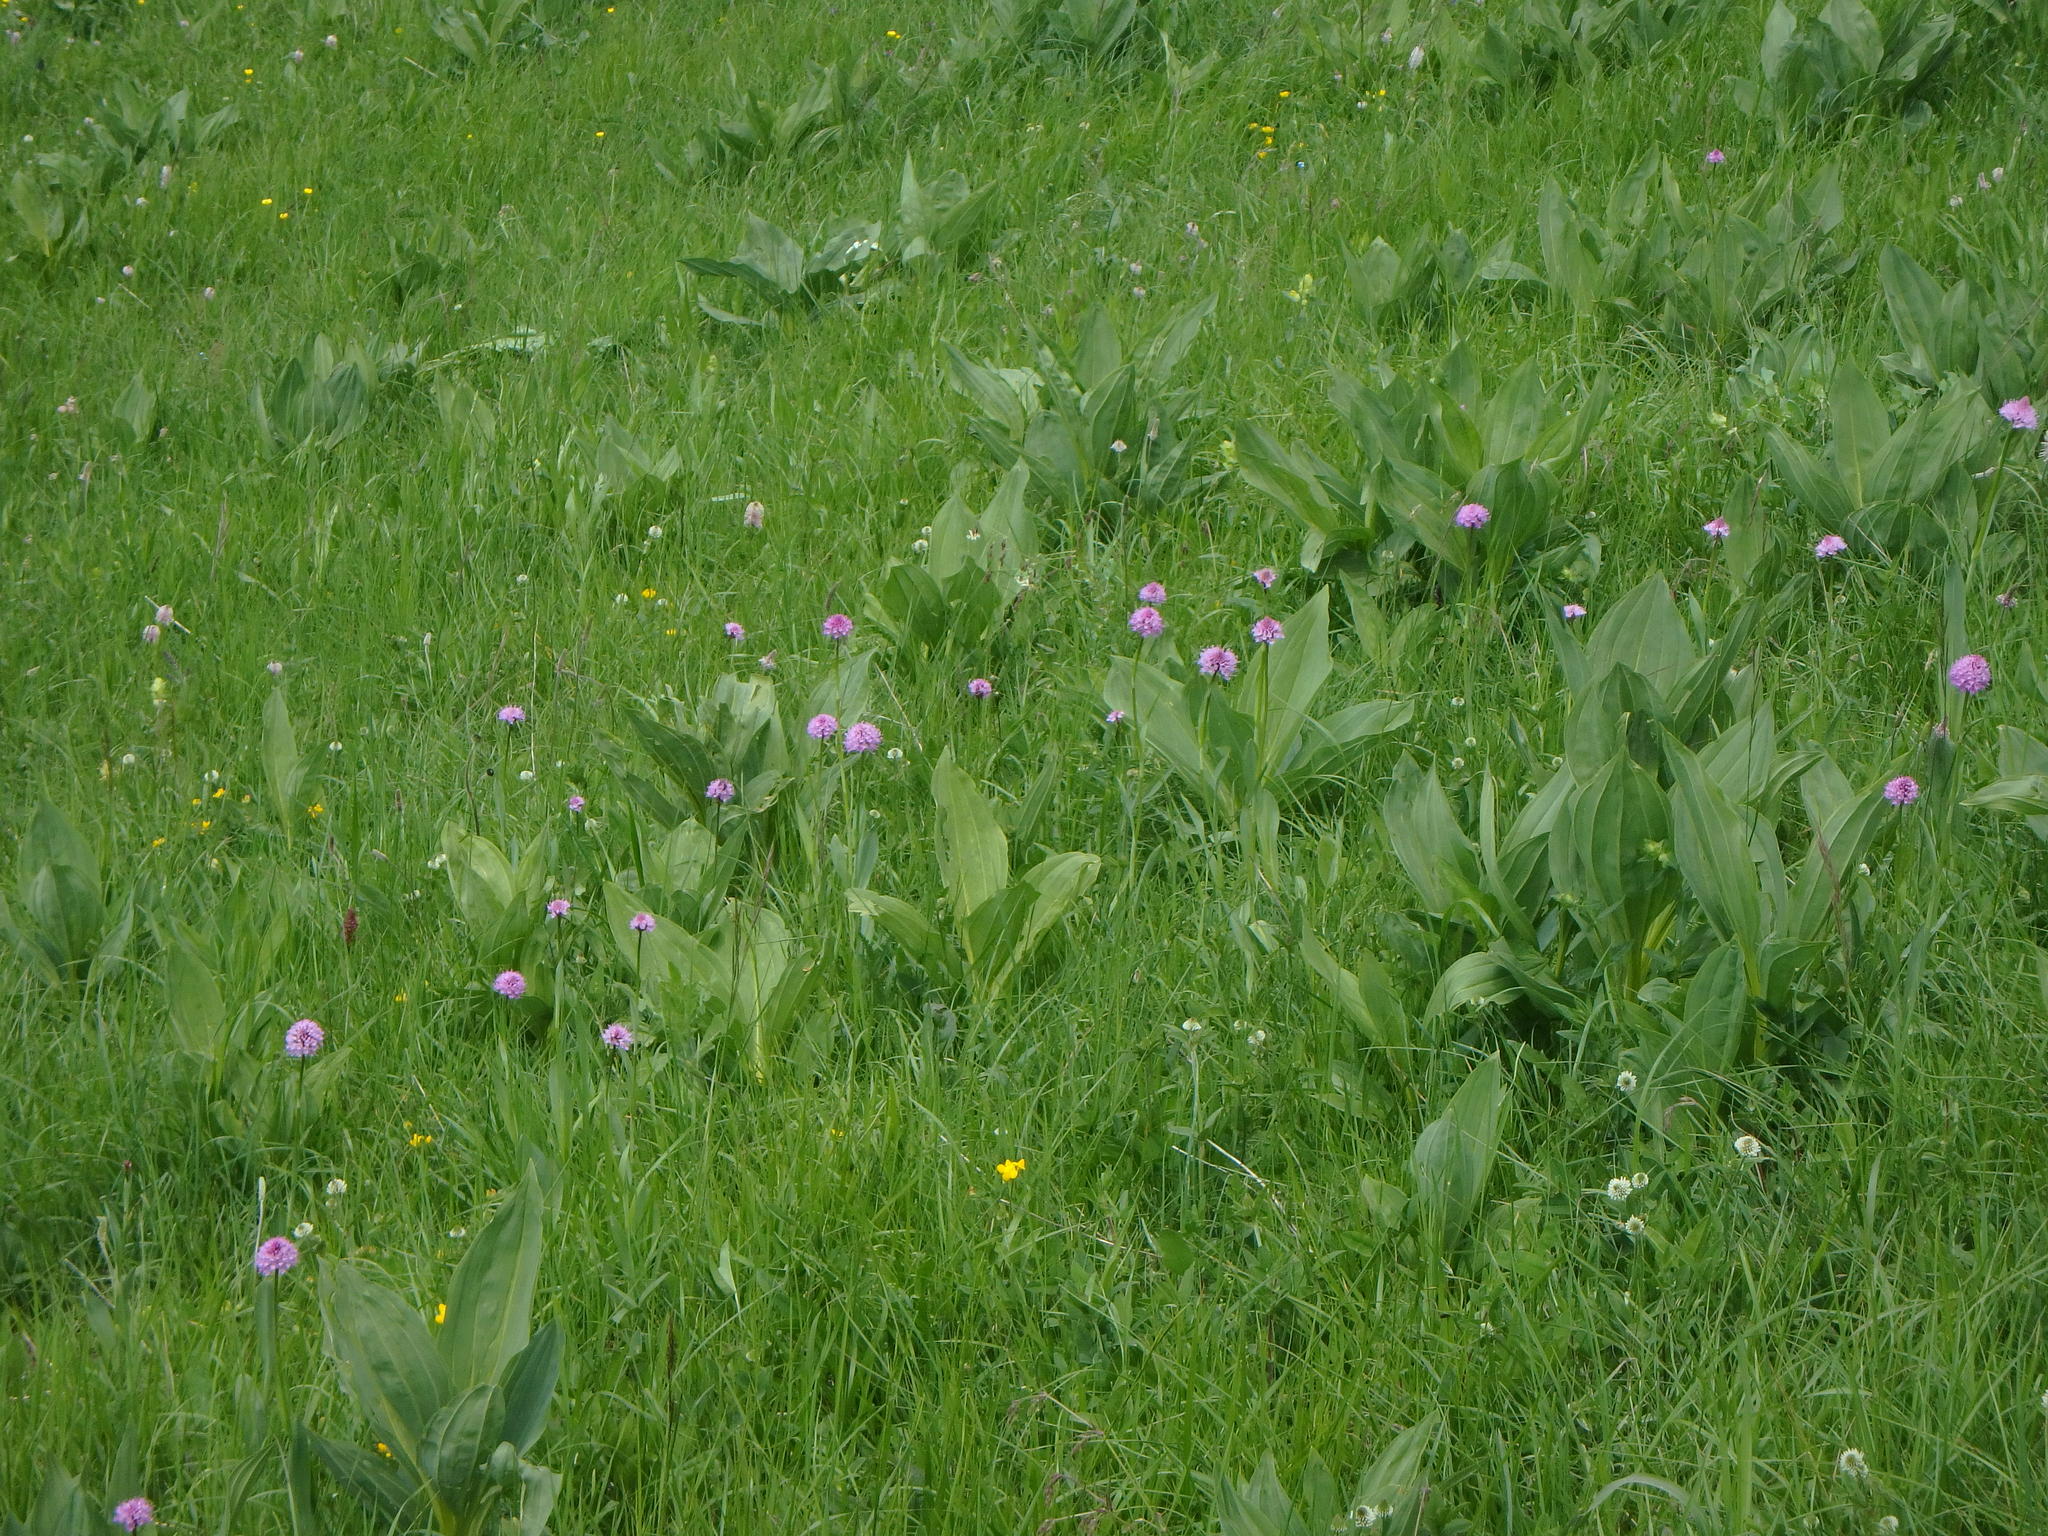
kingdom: Plantae
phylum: Tracheophyta
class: Liliopsida
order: Asparagales
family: Orchidaceae
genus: Traunsteinera
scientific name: Traunsteinera globosa
